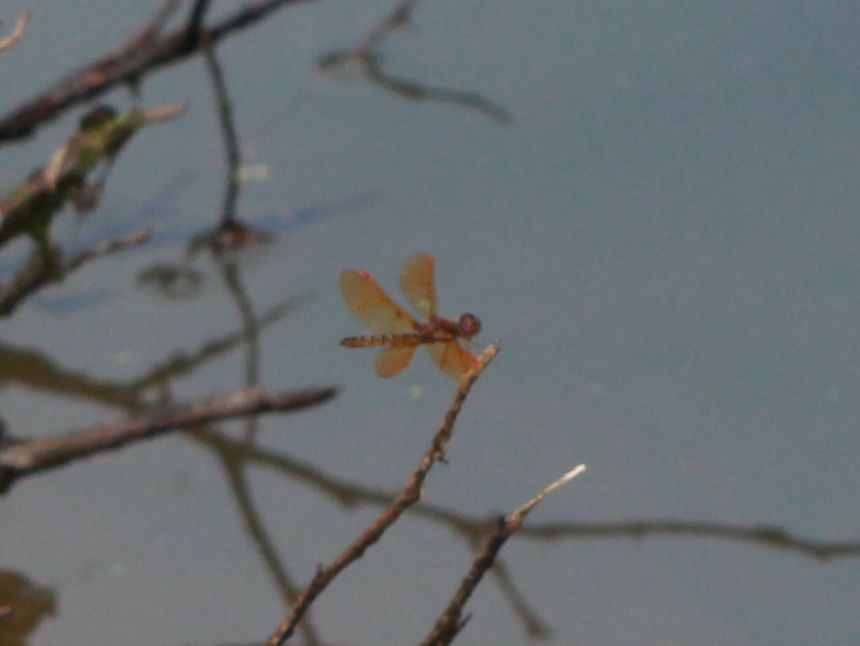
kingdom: Animalia
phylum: Arthropoda
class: Insecta
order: Odonata
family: Libellulidae
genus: Perithemis
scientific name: Perithemis tenera
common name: Eastern amberwing
